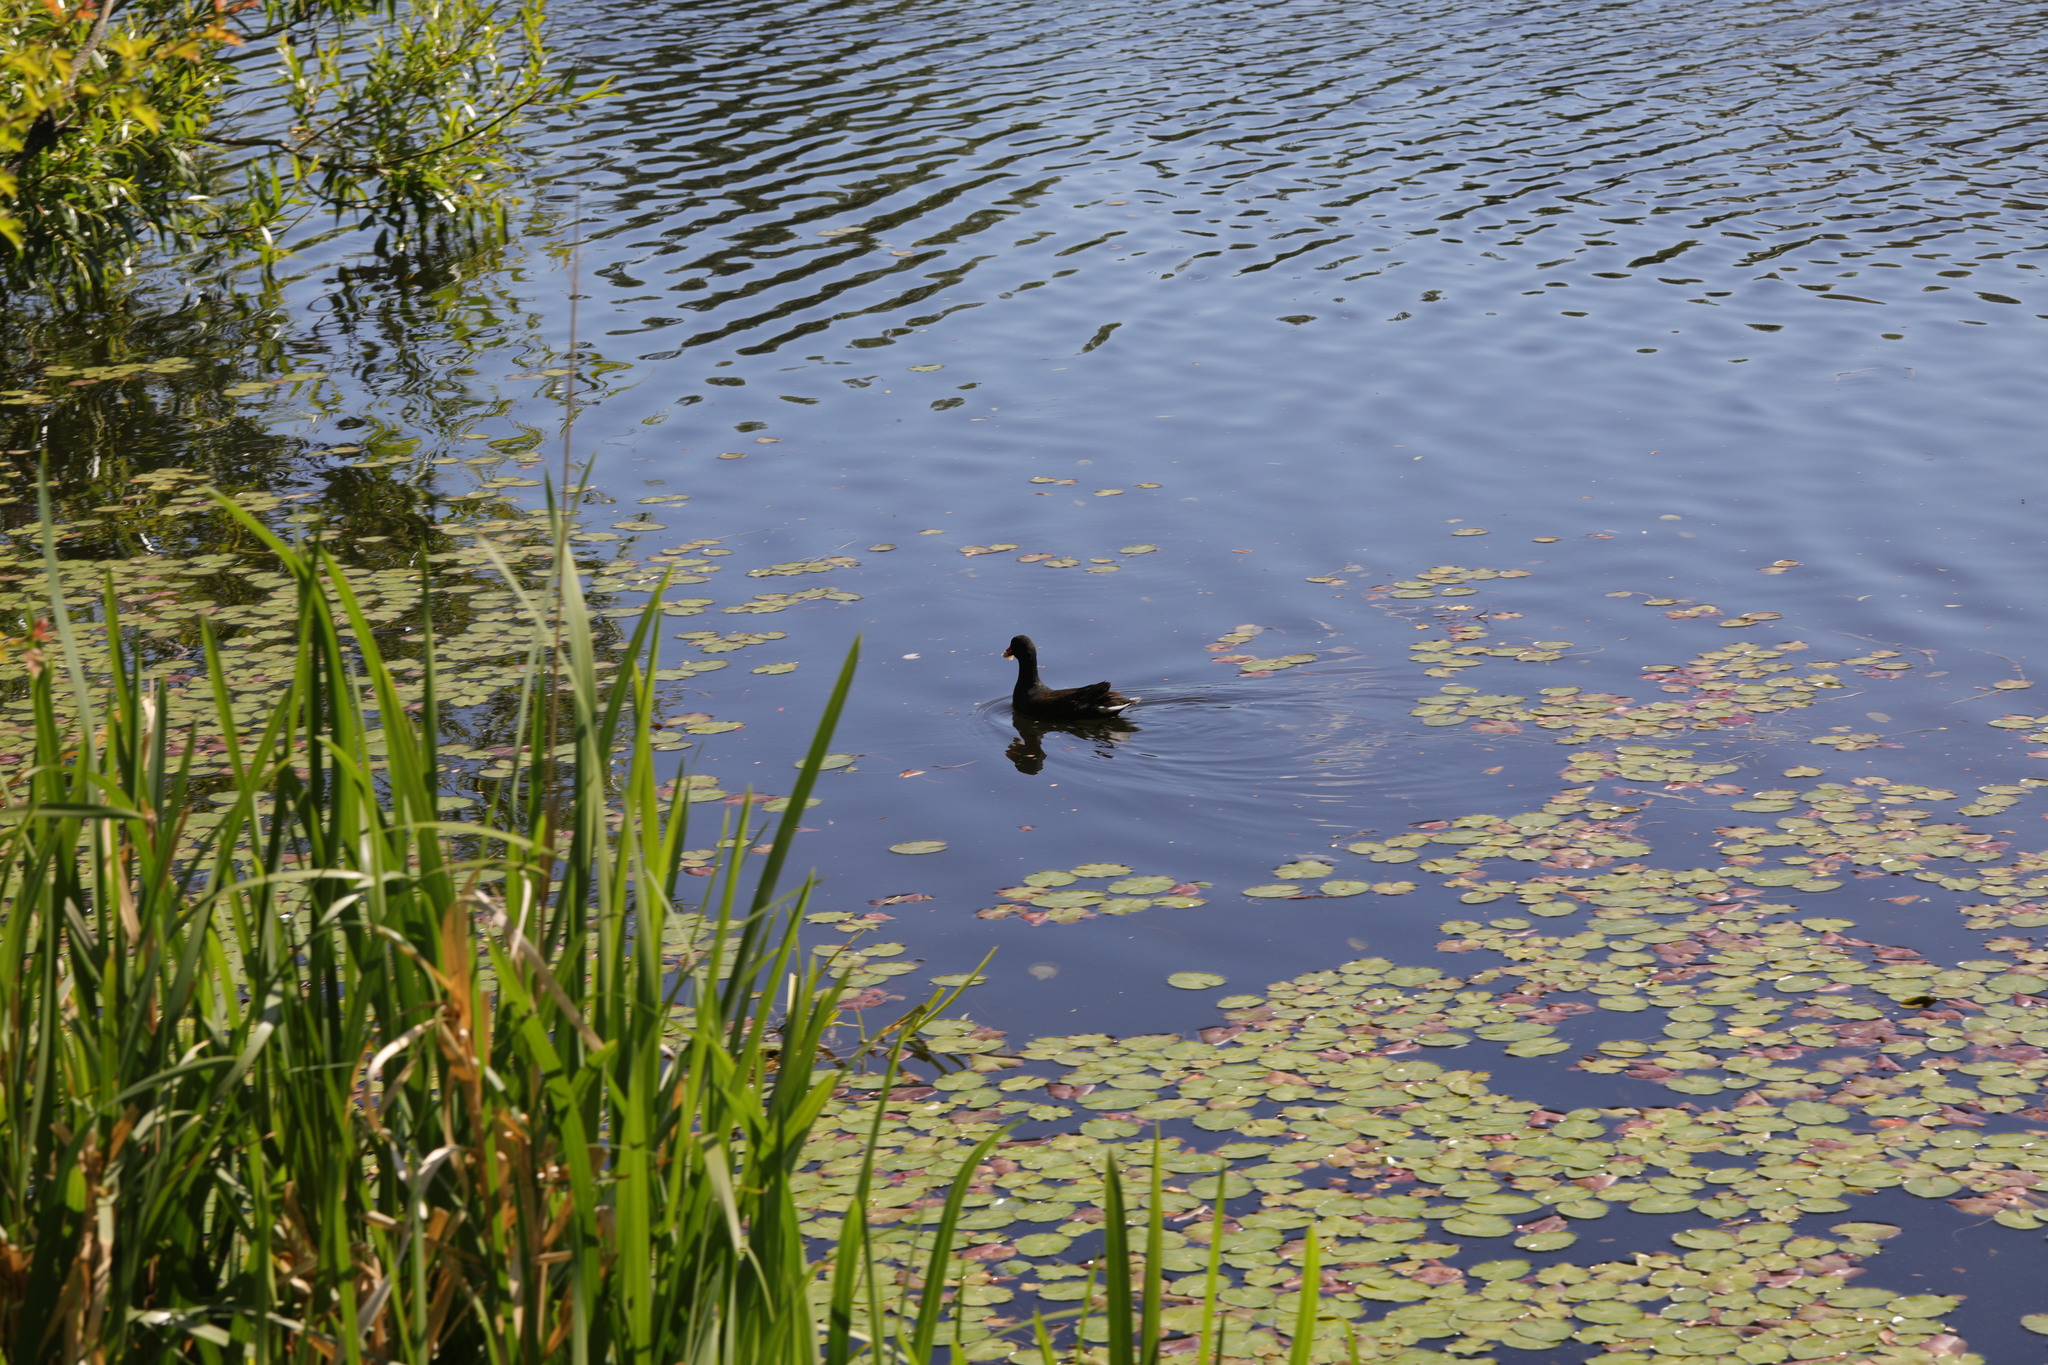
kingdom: Animalia
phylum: Chordata
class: Aves
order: Gruiformes
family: Rallidae
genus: Gallinula
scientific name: Gallinula chloropus
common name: Common moorhen
